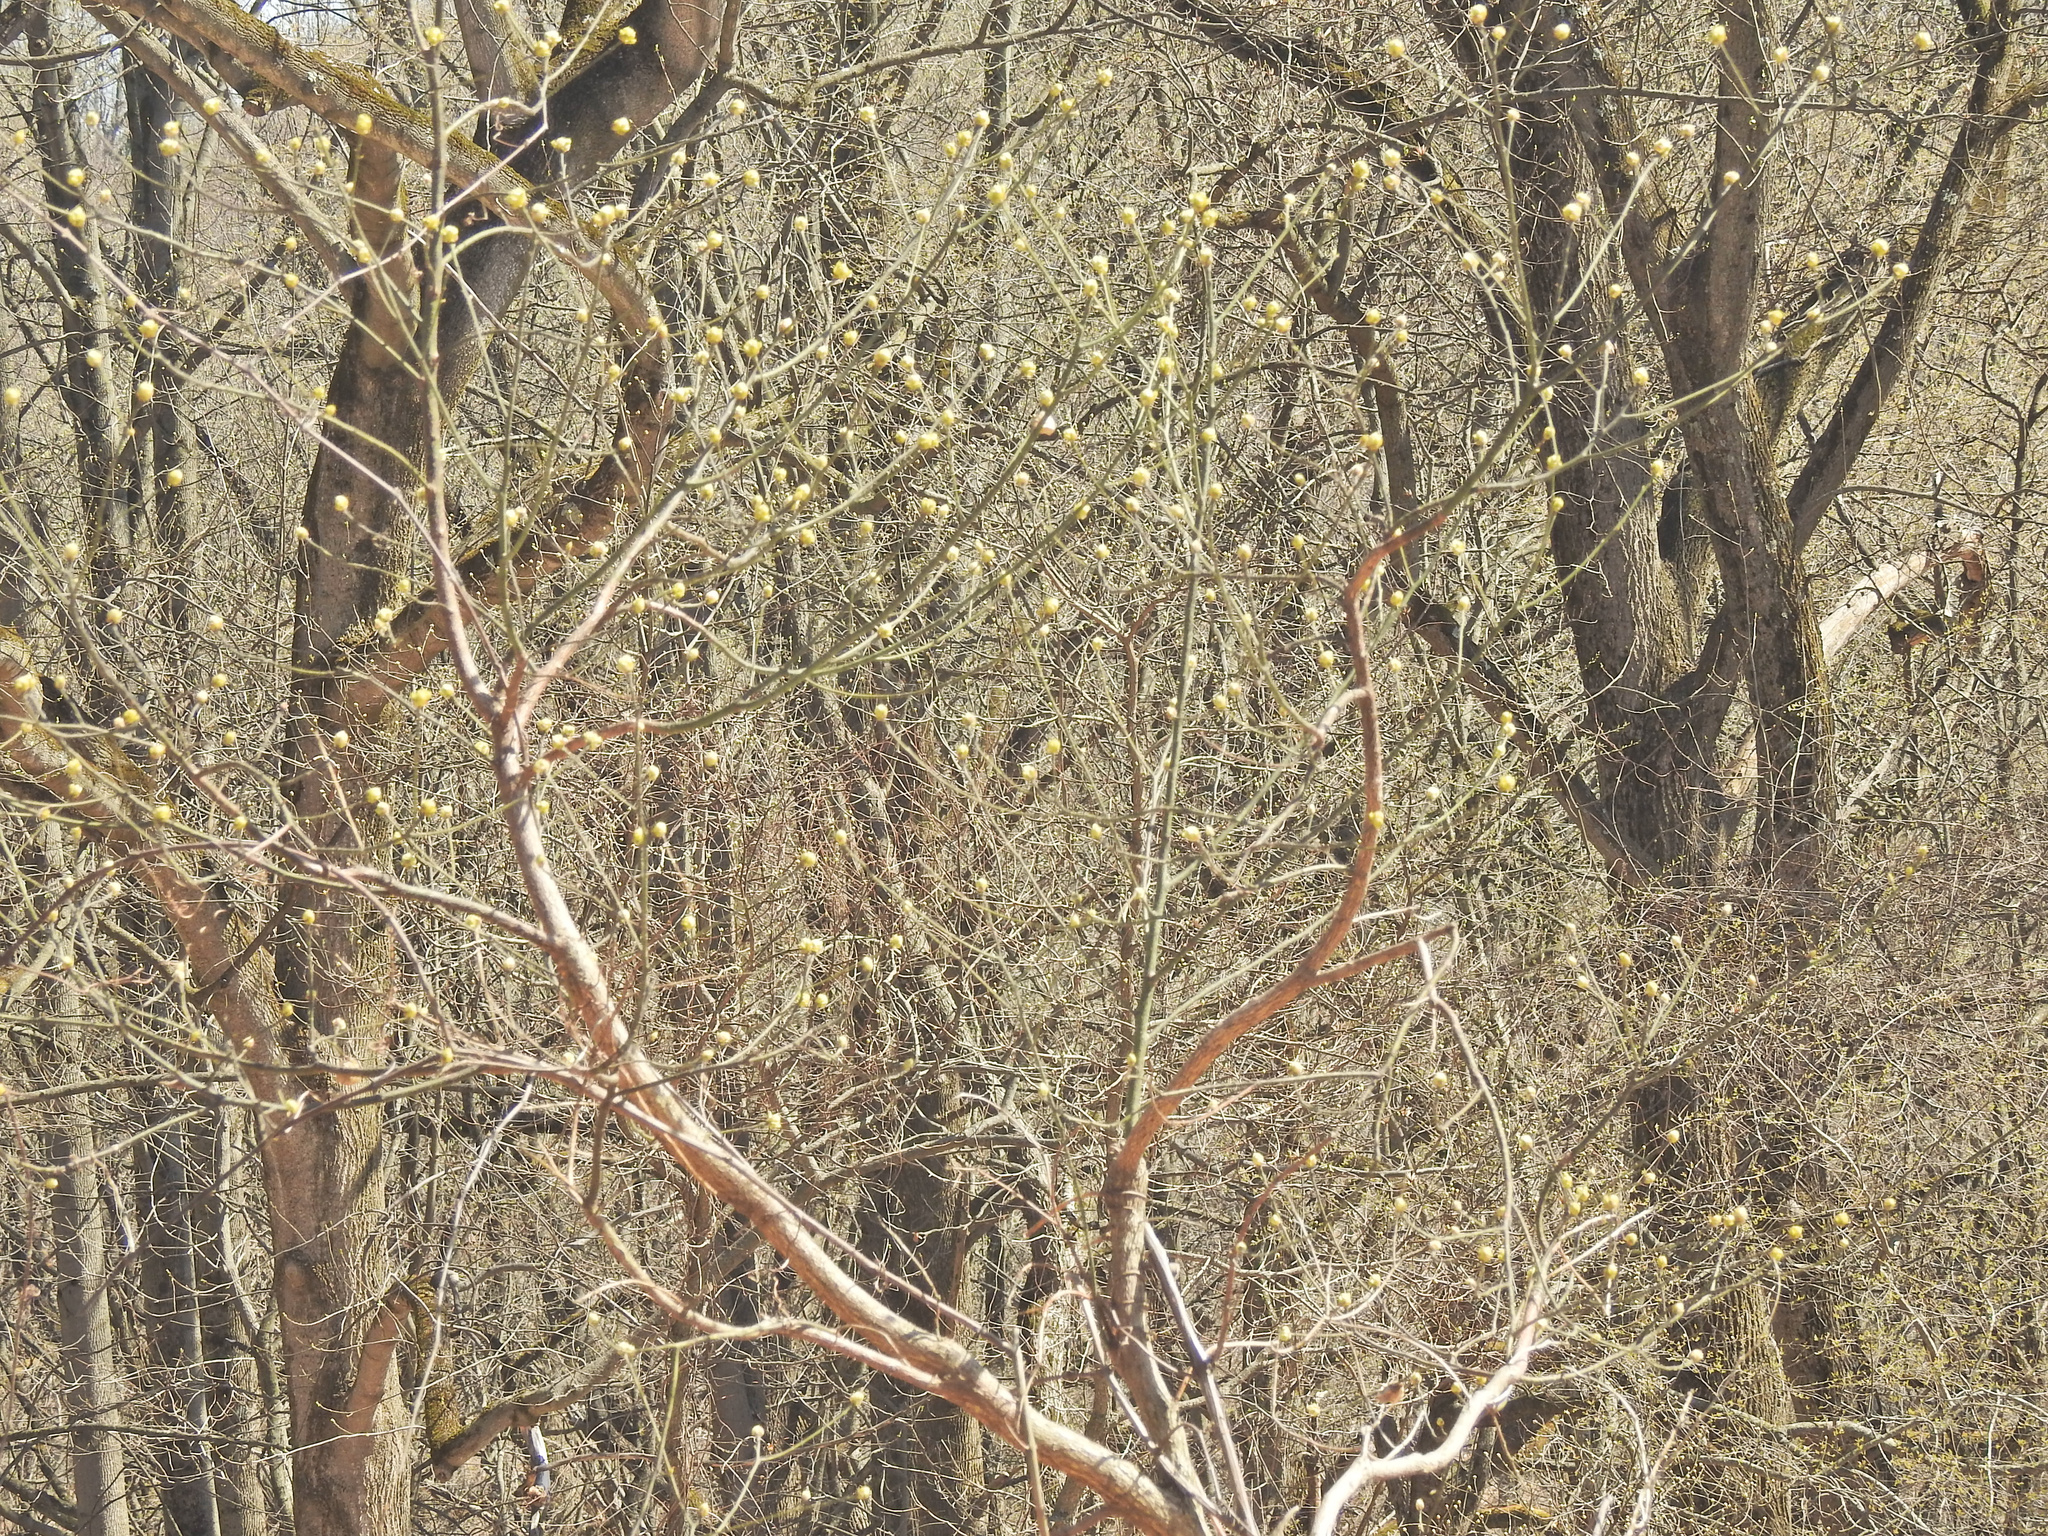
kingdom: Plantae
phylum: Tracheophyta
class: Magnoliopsida
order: Laurales
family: Lauraceae
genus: Lindera
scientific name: Lindera benzoin
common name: Spicebush
